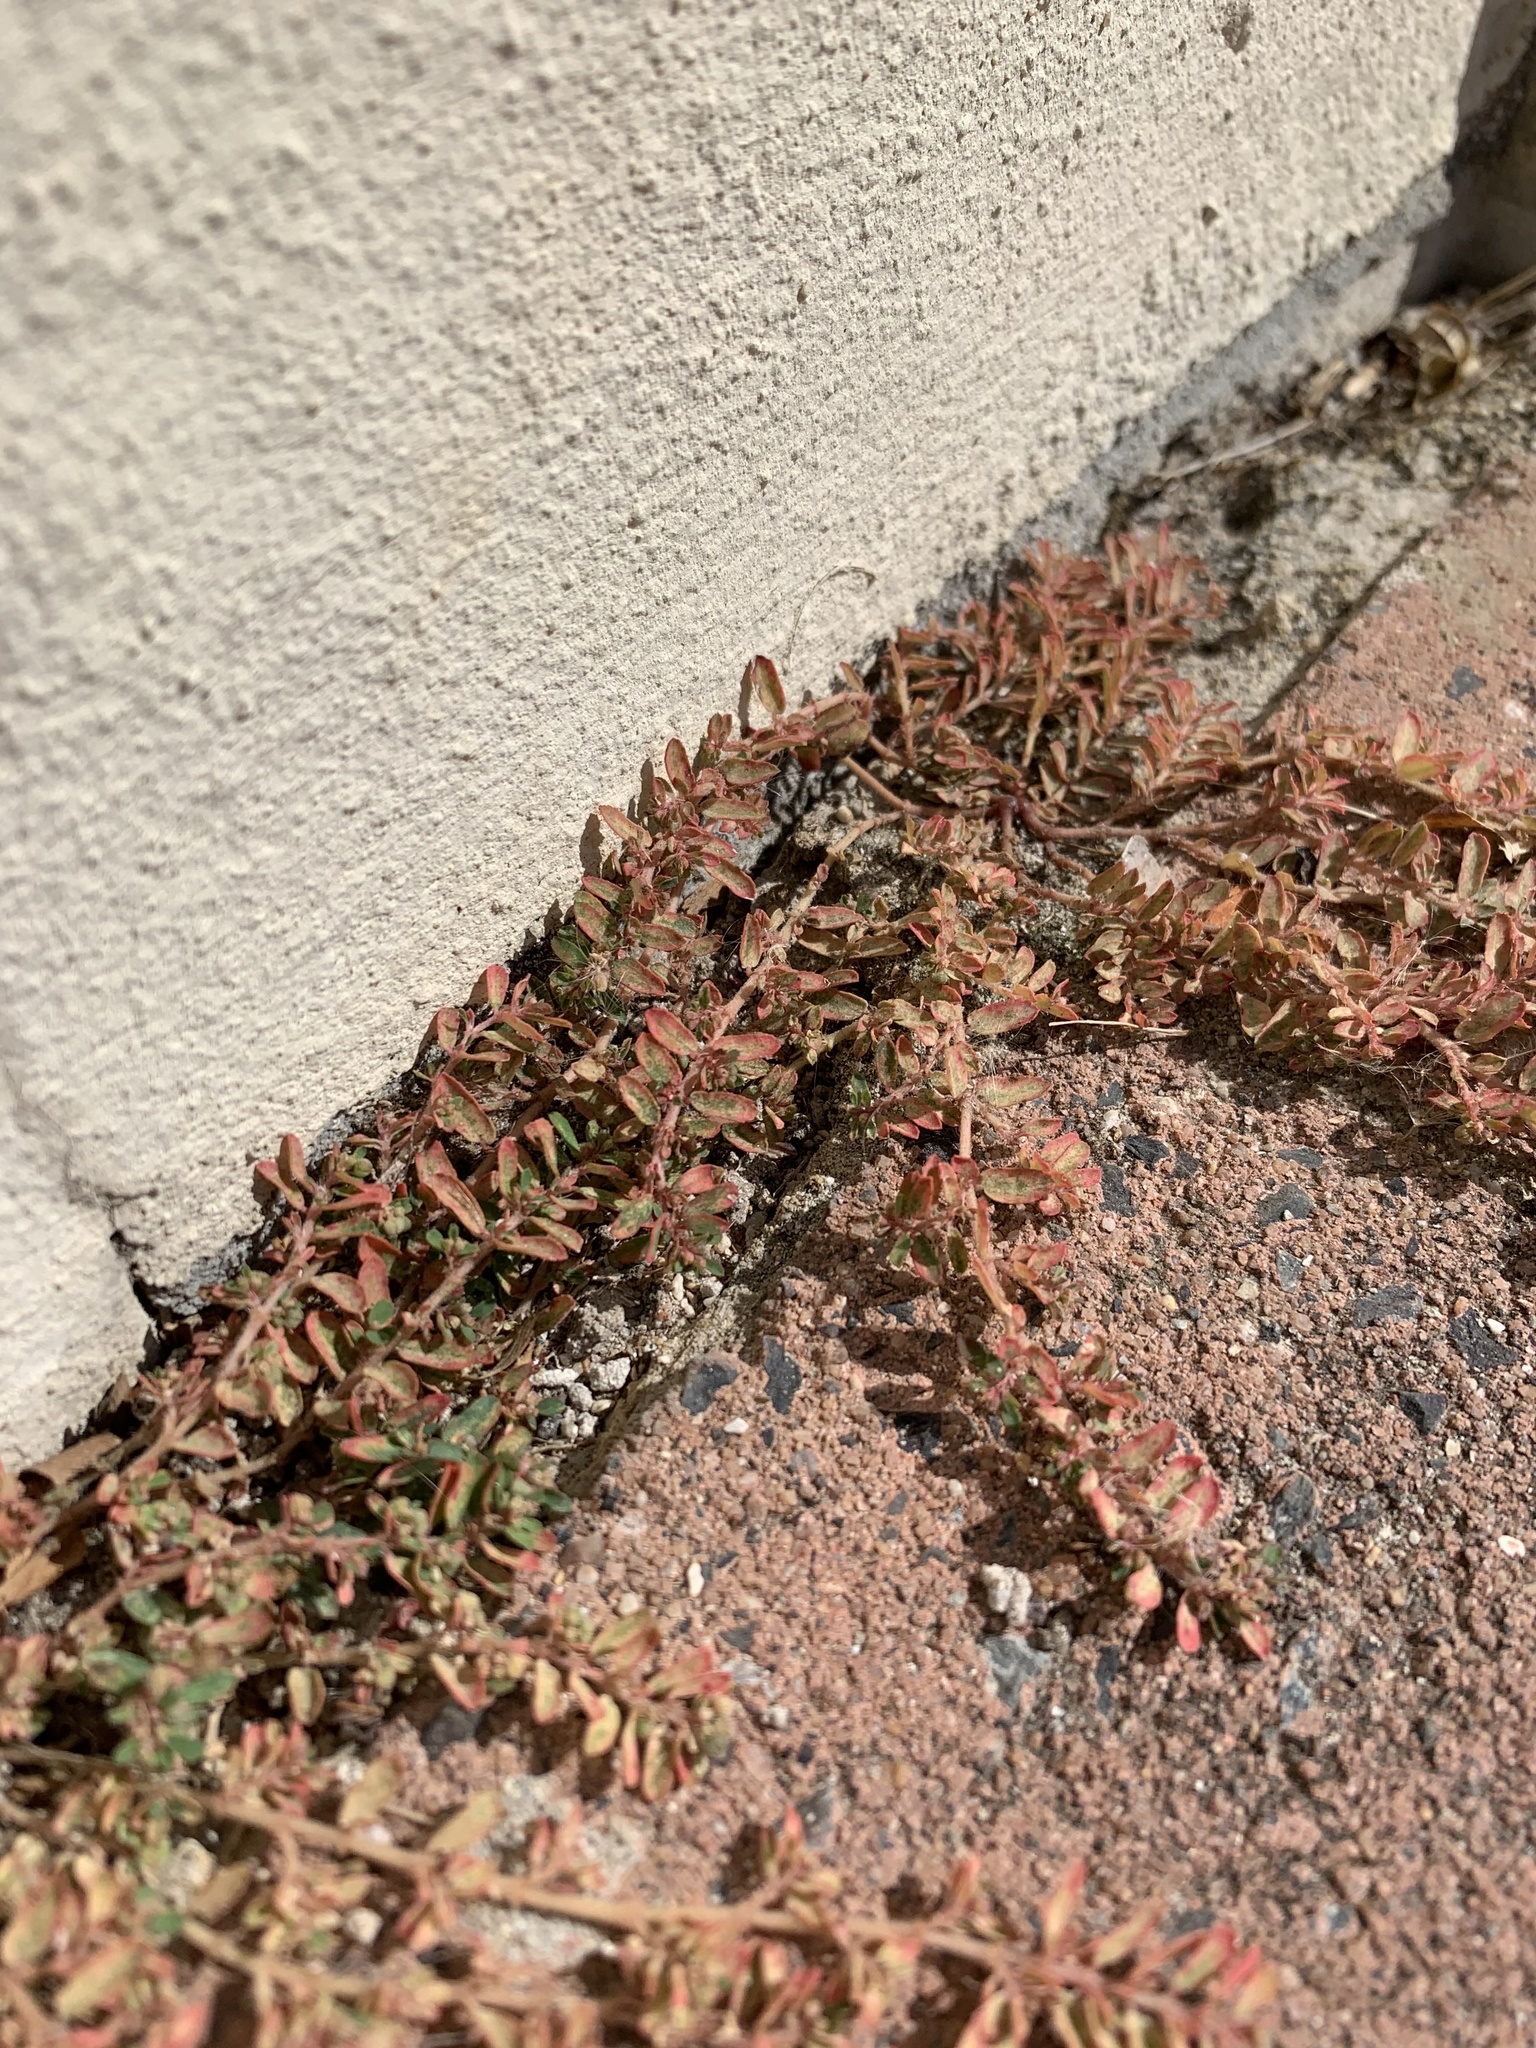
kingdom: Plantae
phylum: Tracheophyta
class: Magnoliopsida
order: Malpighiales
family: Euphorbiaceae
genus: Euphorbia
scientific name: Euphorbia maculata
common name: Spotted spurge
